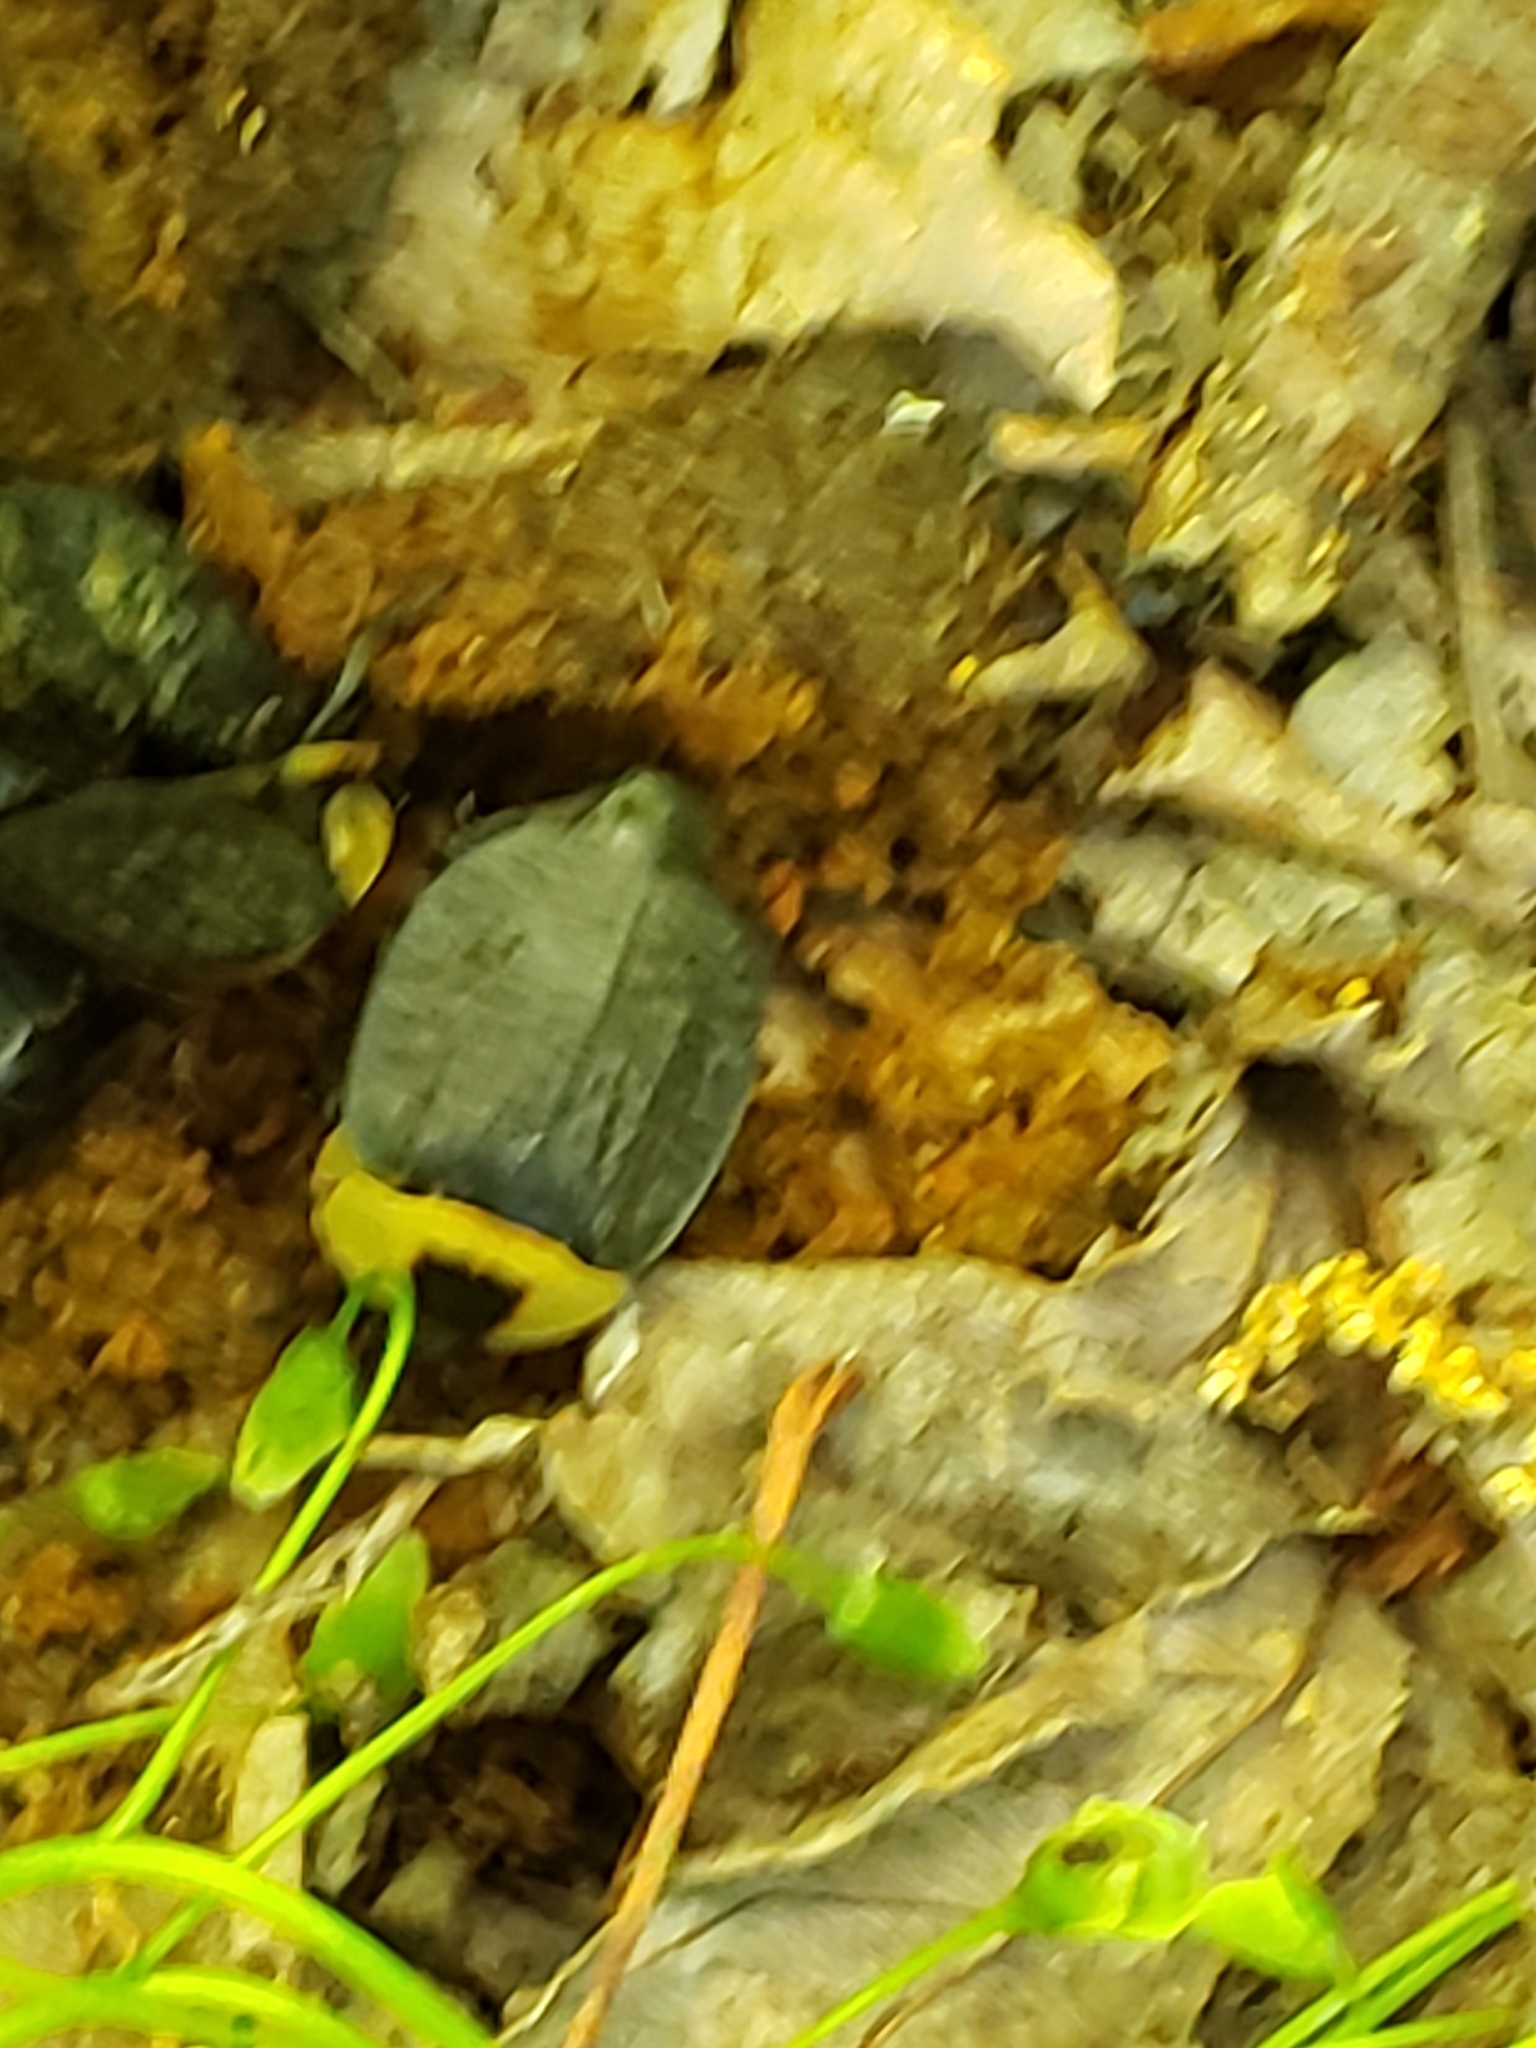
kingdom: Animalia
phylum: Arthropoda
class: Insecta
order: Coleoptera
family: Staphylinidae
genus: Necrophila
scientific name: Necrophila americana
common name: American carrion beetle
